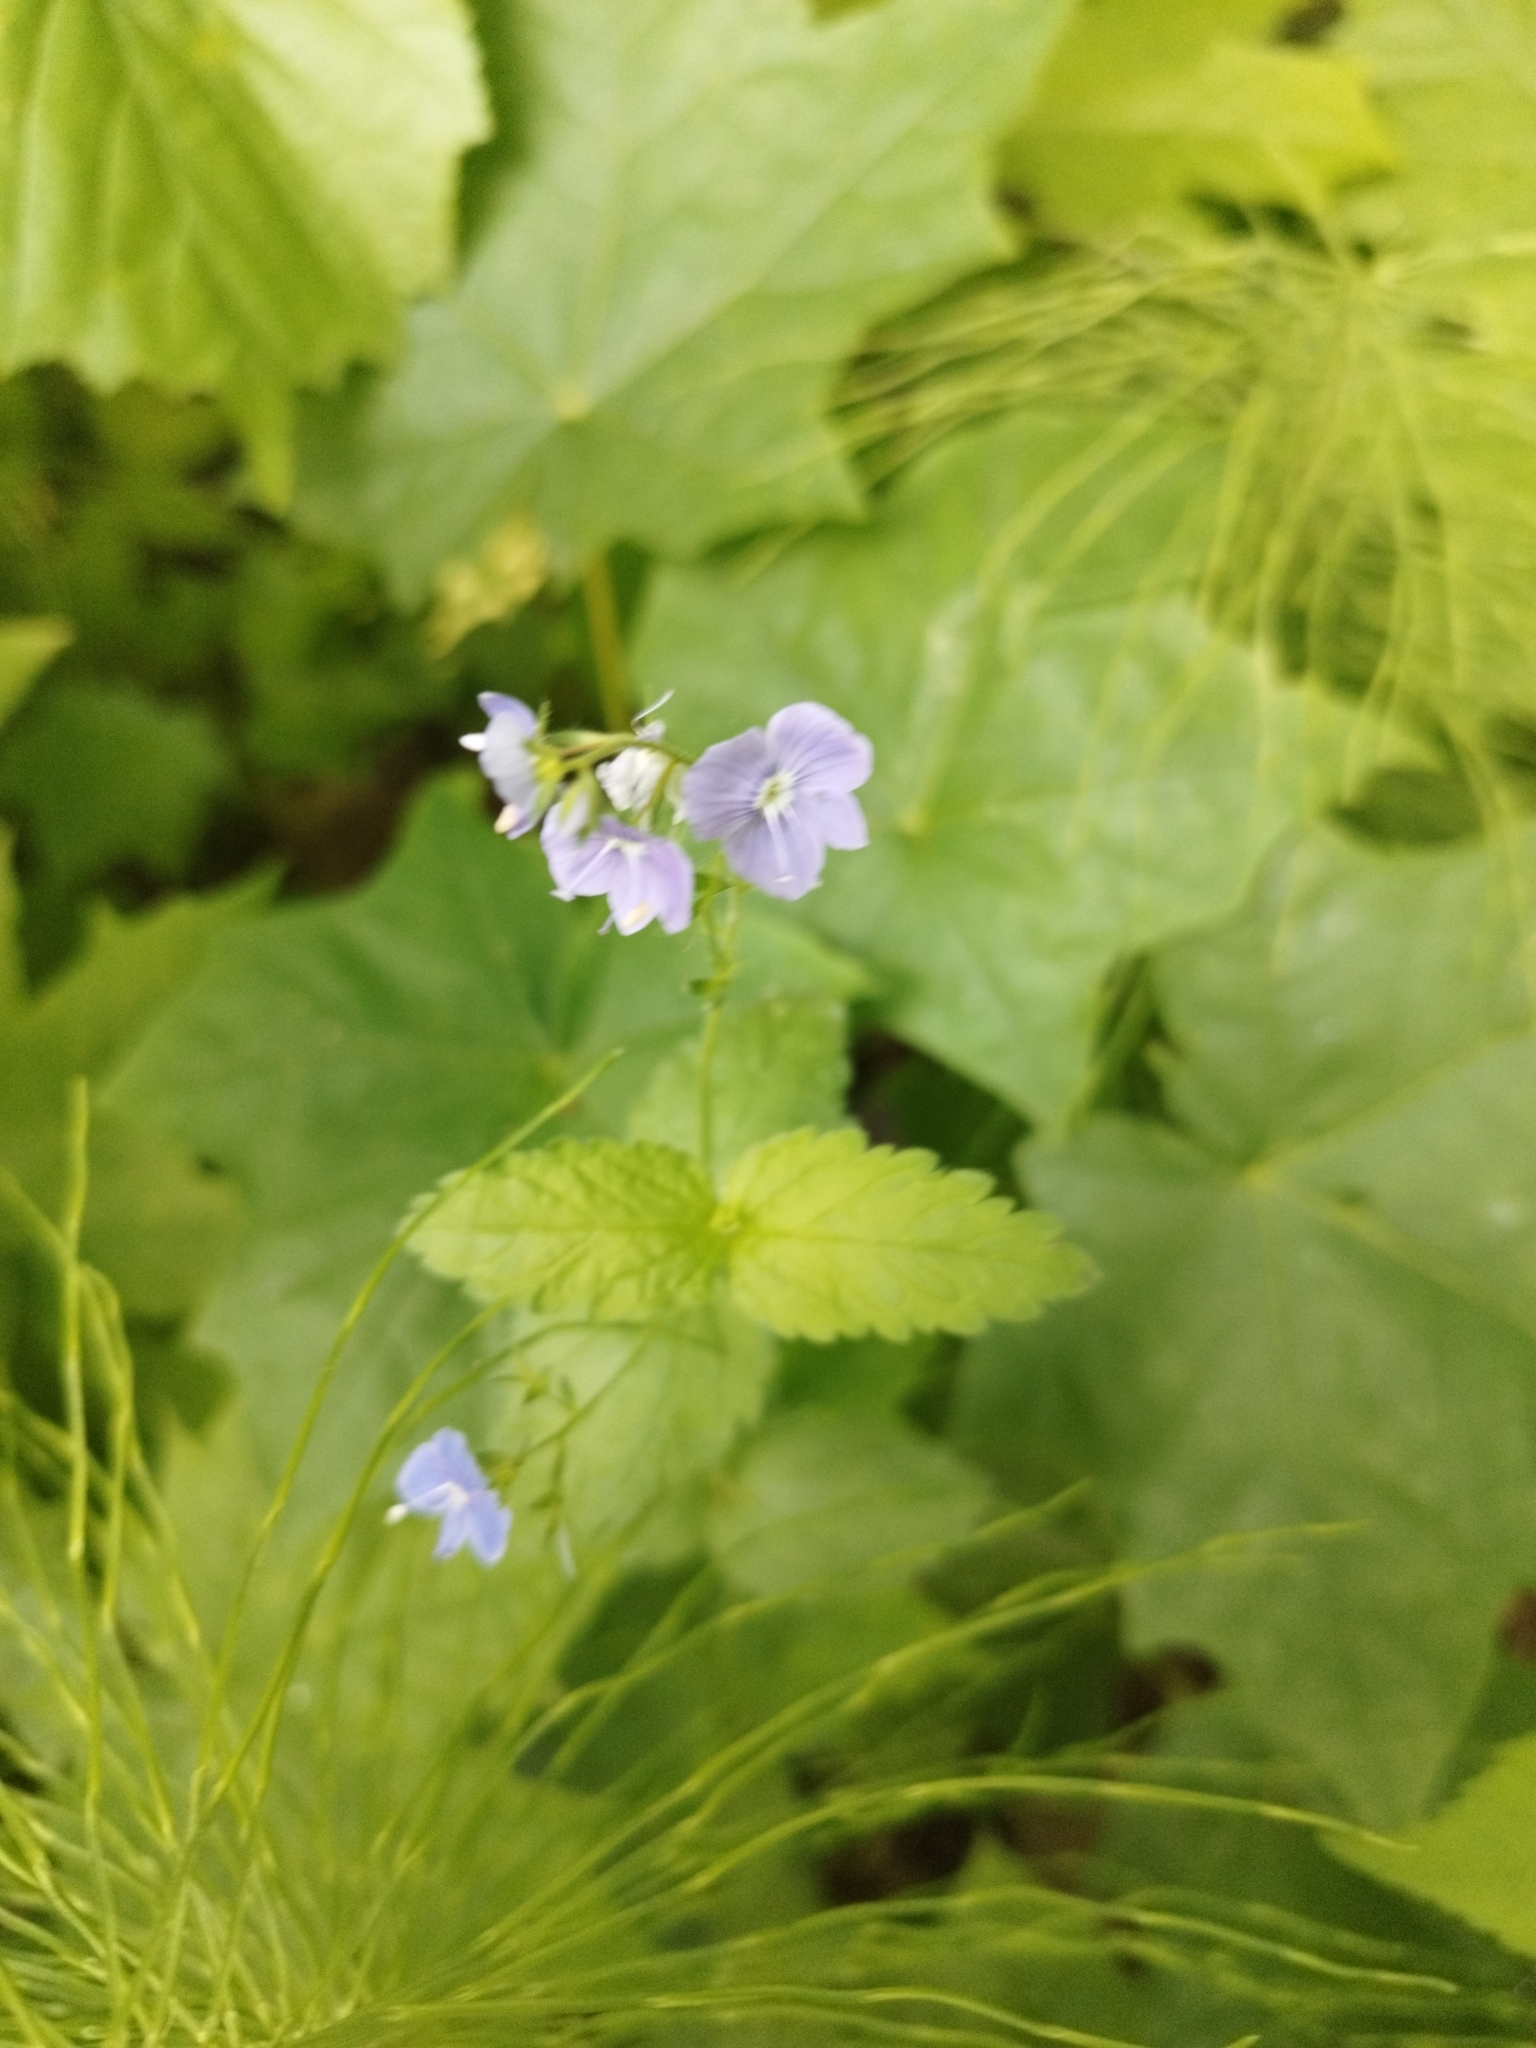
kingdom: Plantae
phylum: Tracheophyta
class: Magnoliopsida
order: Lamiales
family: Plantaginaceae
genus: Veronica
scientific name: Veronica chamaedrys
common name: Germander speedwell
